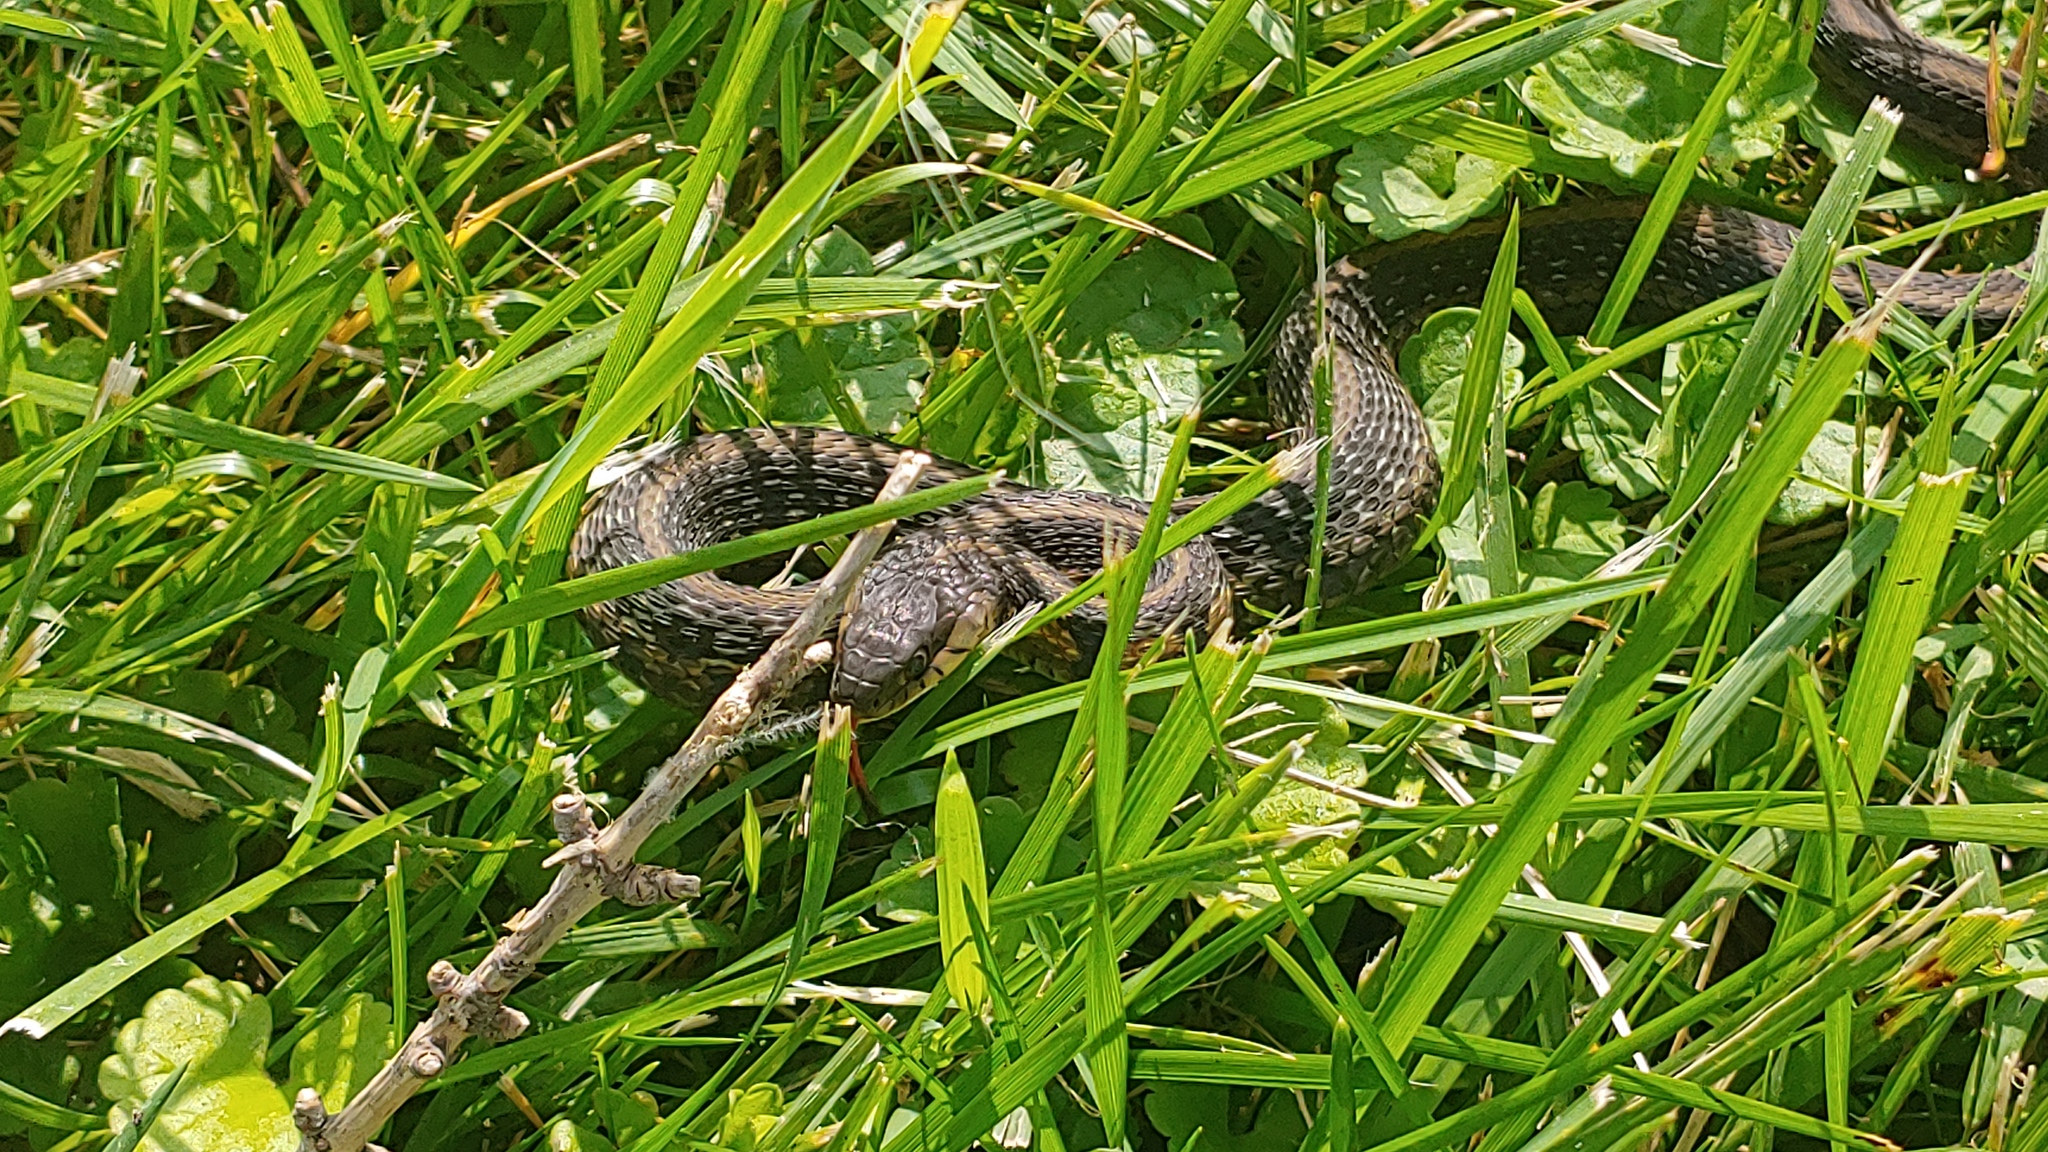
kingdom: Animalia
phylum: Chordata
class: Squamata
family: Colubridae
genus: Thamnophis
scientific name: Thamnophis sirtalis
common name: Common garter snake
